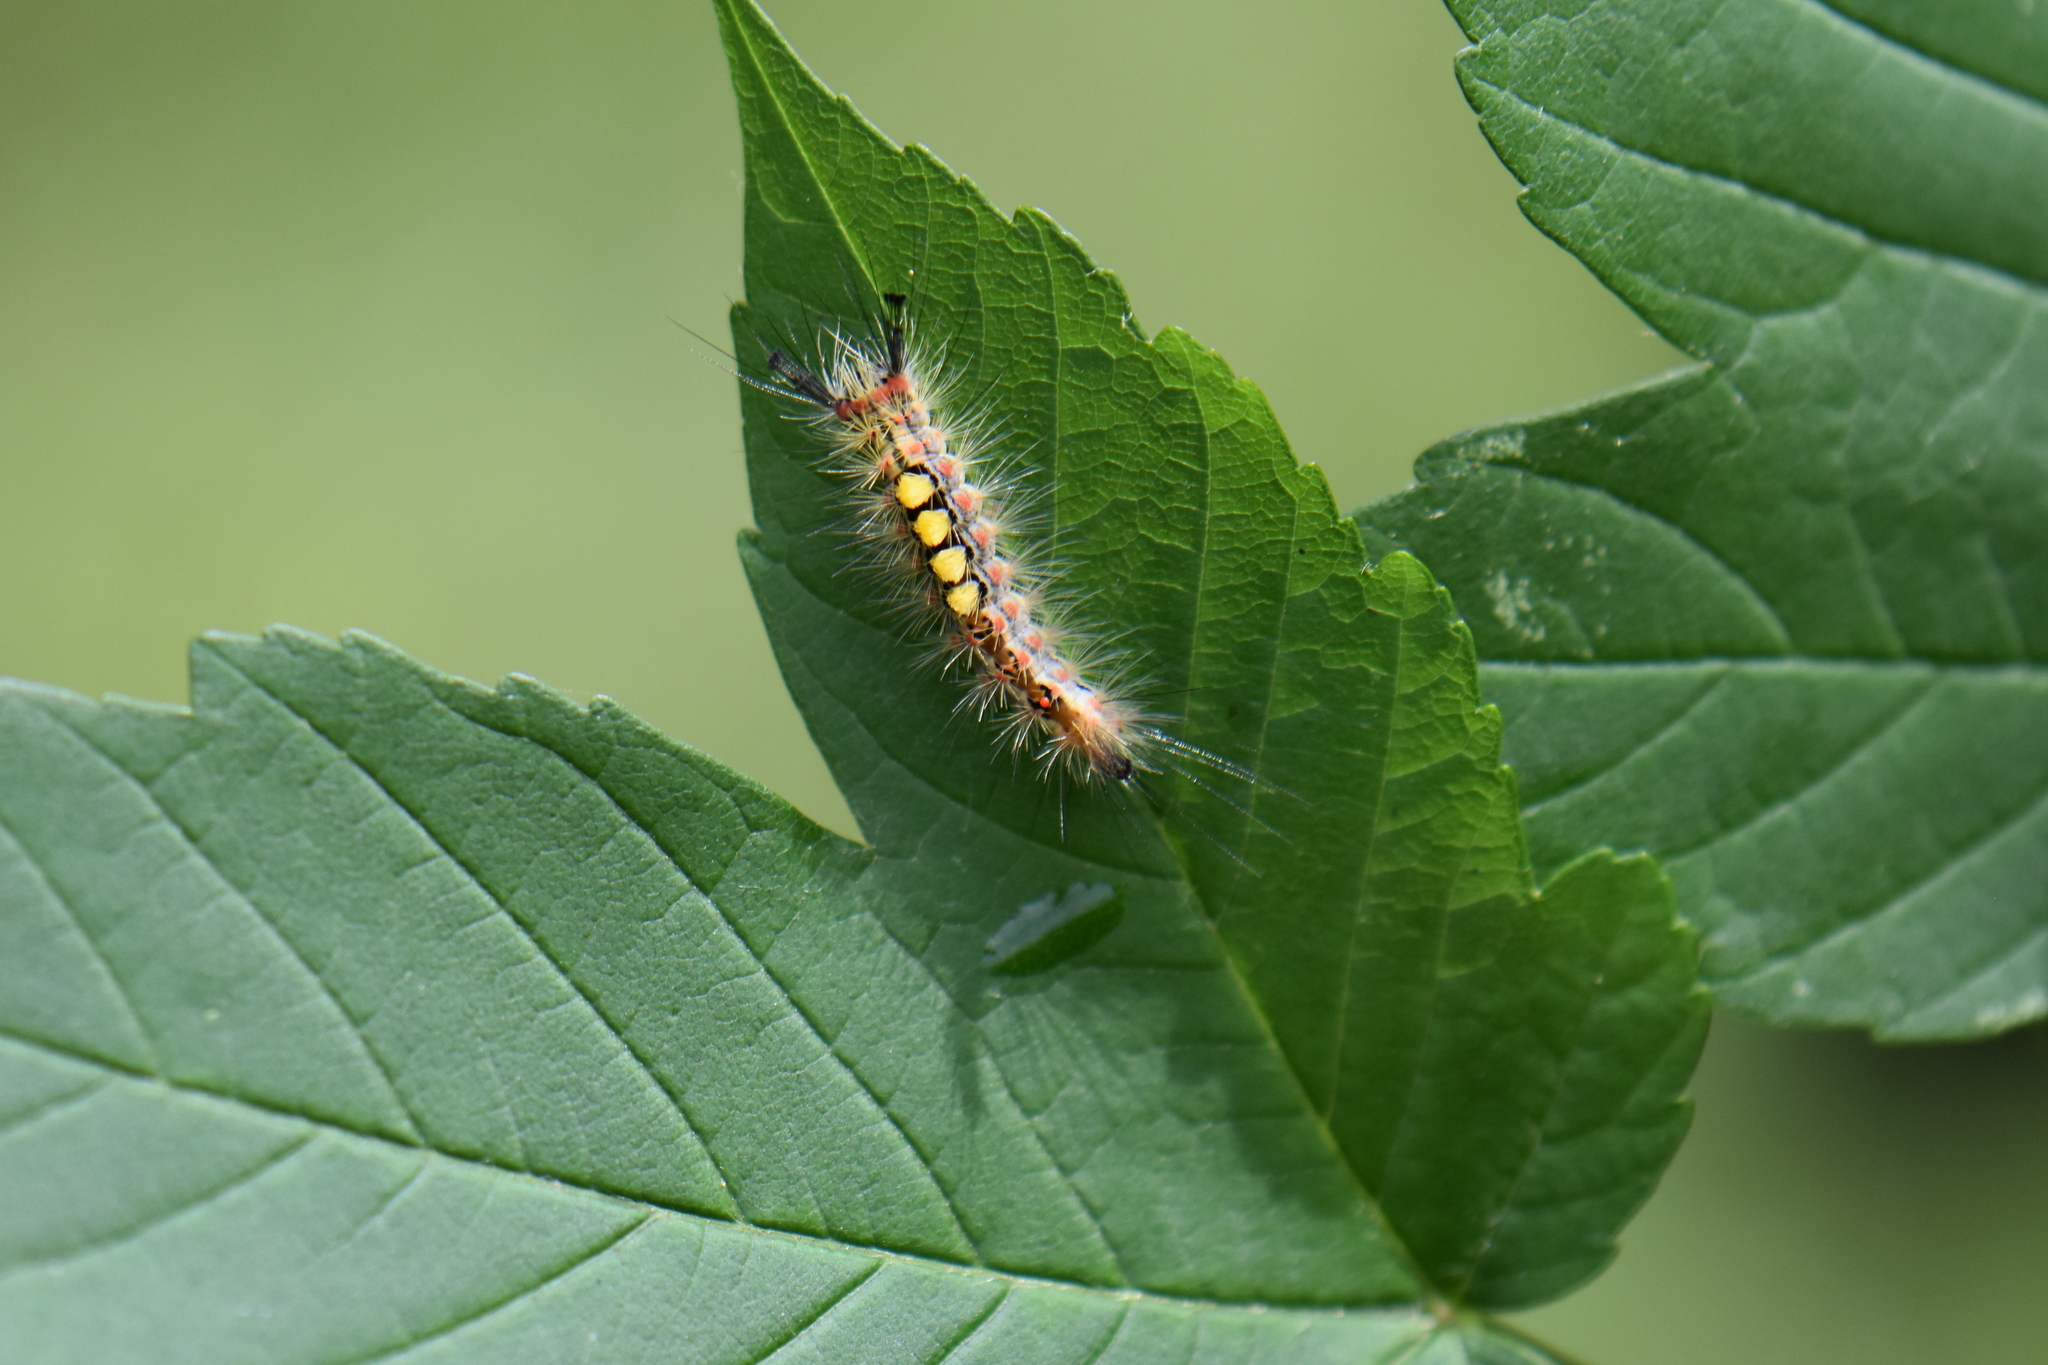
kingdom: Animalia
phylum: Arthropoda
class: Insecta
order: Lepidoptera
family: Erebidae
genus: Orgyia
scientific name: Orgyia antiqua
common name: Vapourer
